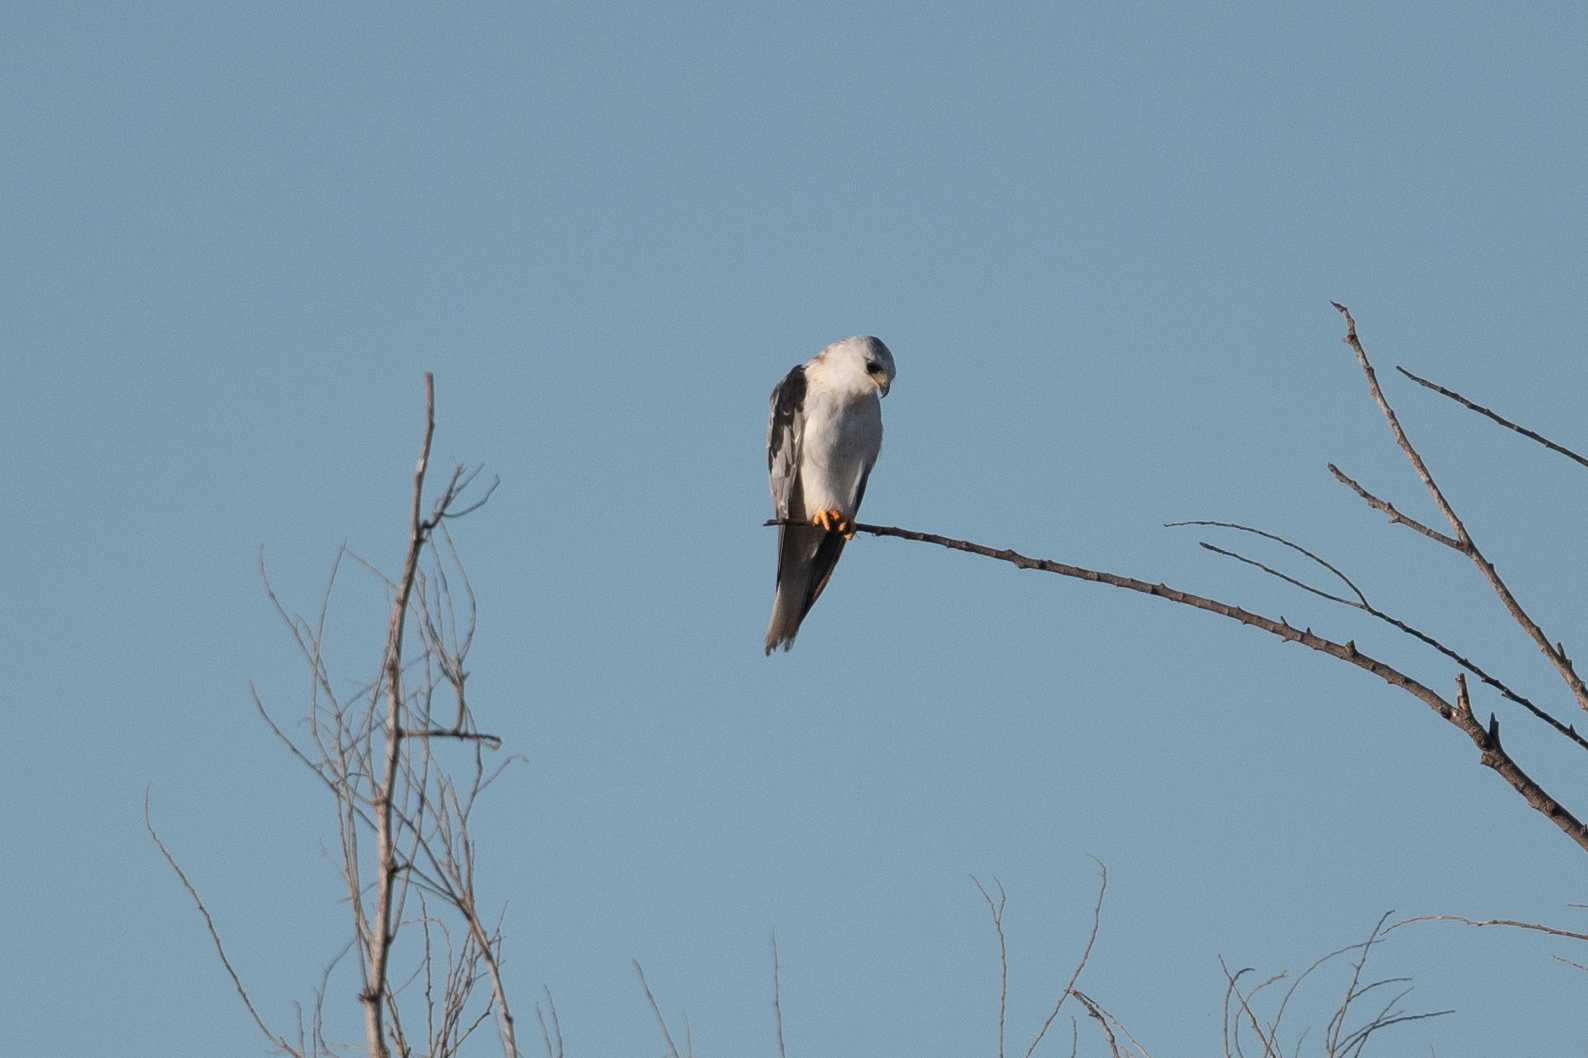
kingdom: Animalia
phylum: Chordata
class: Aves
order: Accipitriformes
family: Accipitridae
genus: Elanus
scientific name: Elanus leucurus
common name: White-tailed kite
